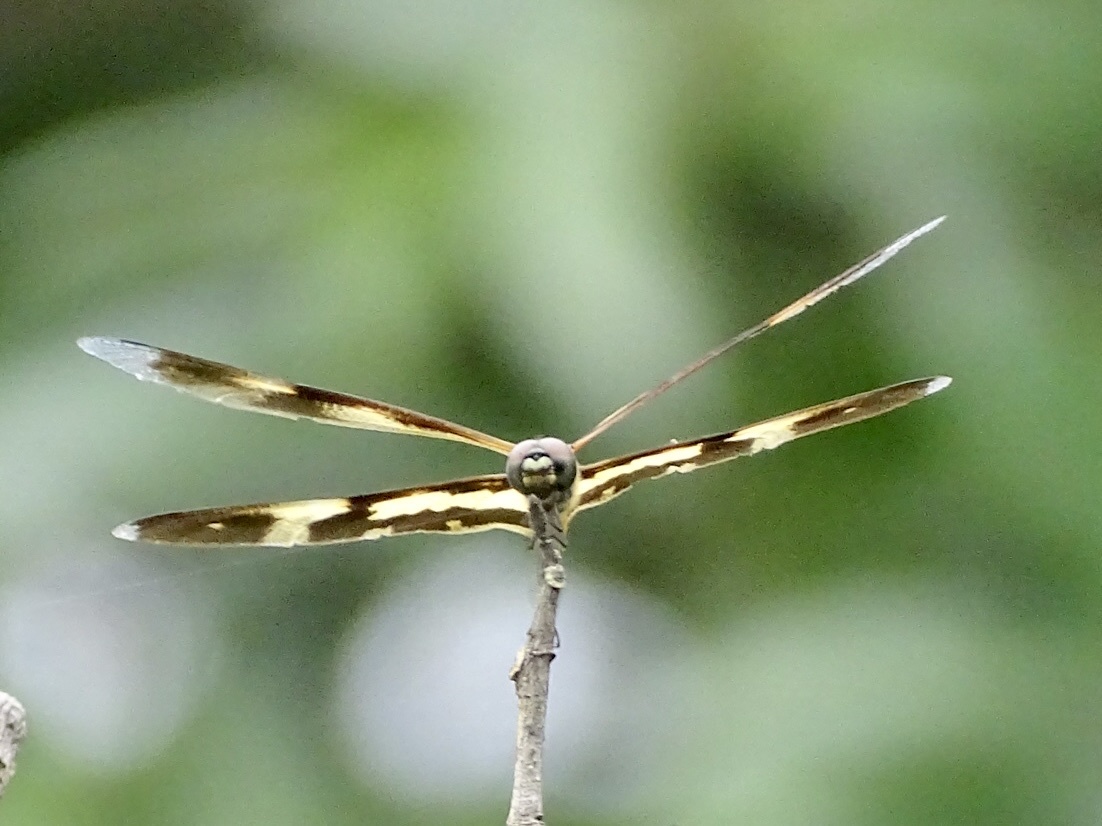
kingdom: Animalia
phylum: Arthropoda
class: Insecta
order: Odonata
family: Libellulidae
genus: Rhyothemis
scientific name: Rhyothemis variegata
